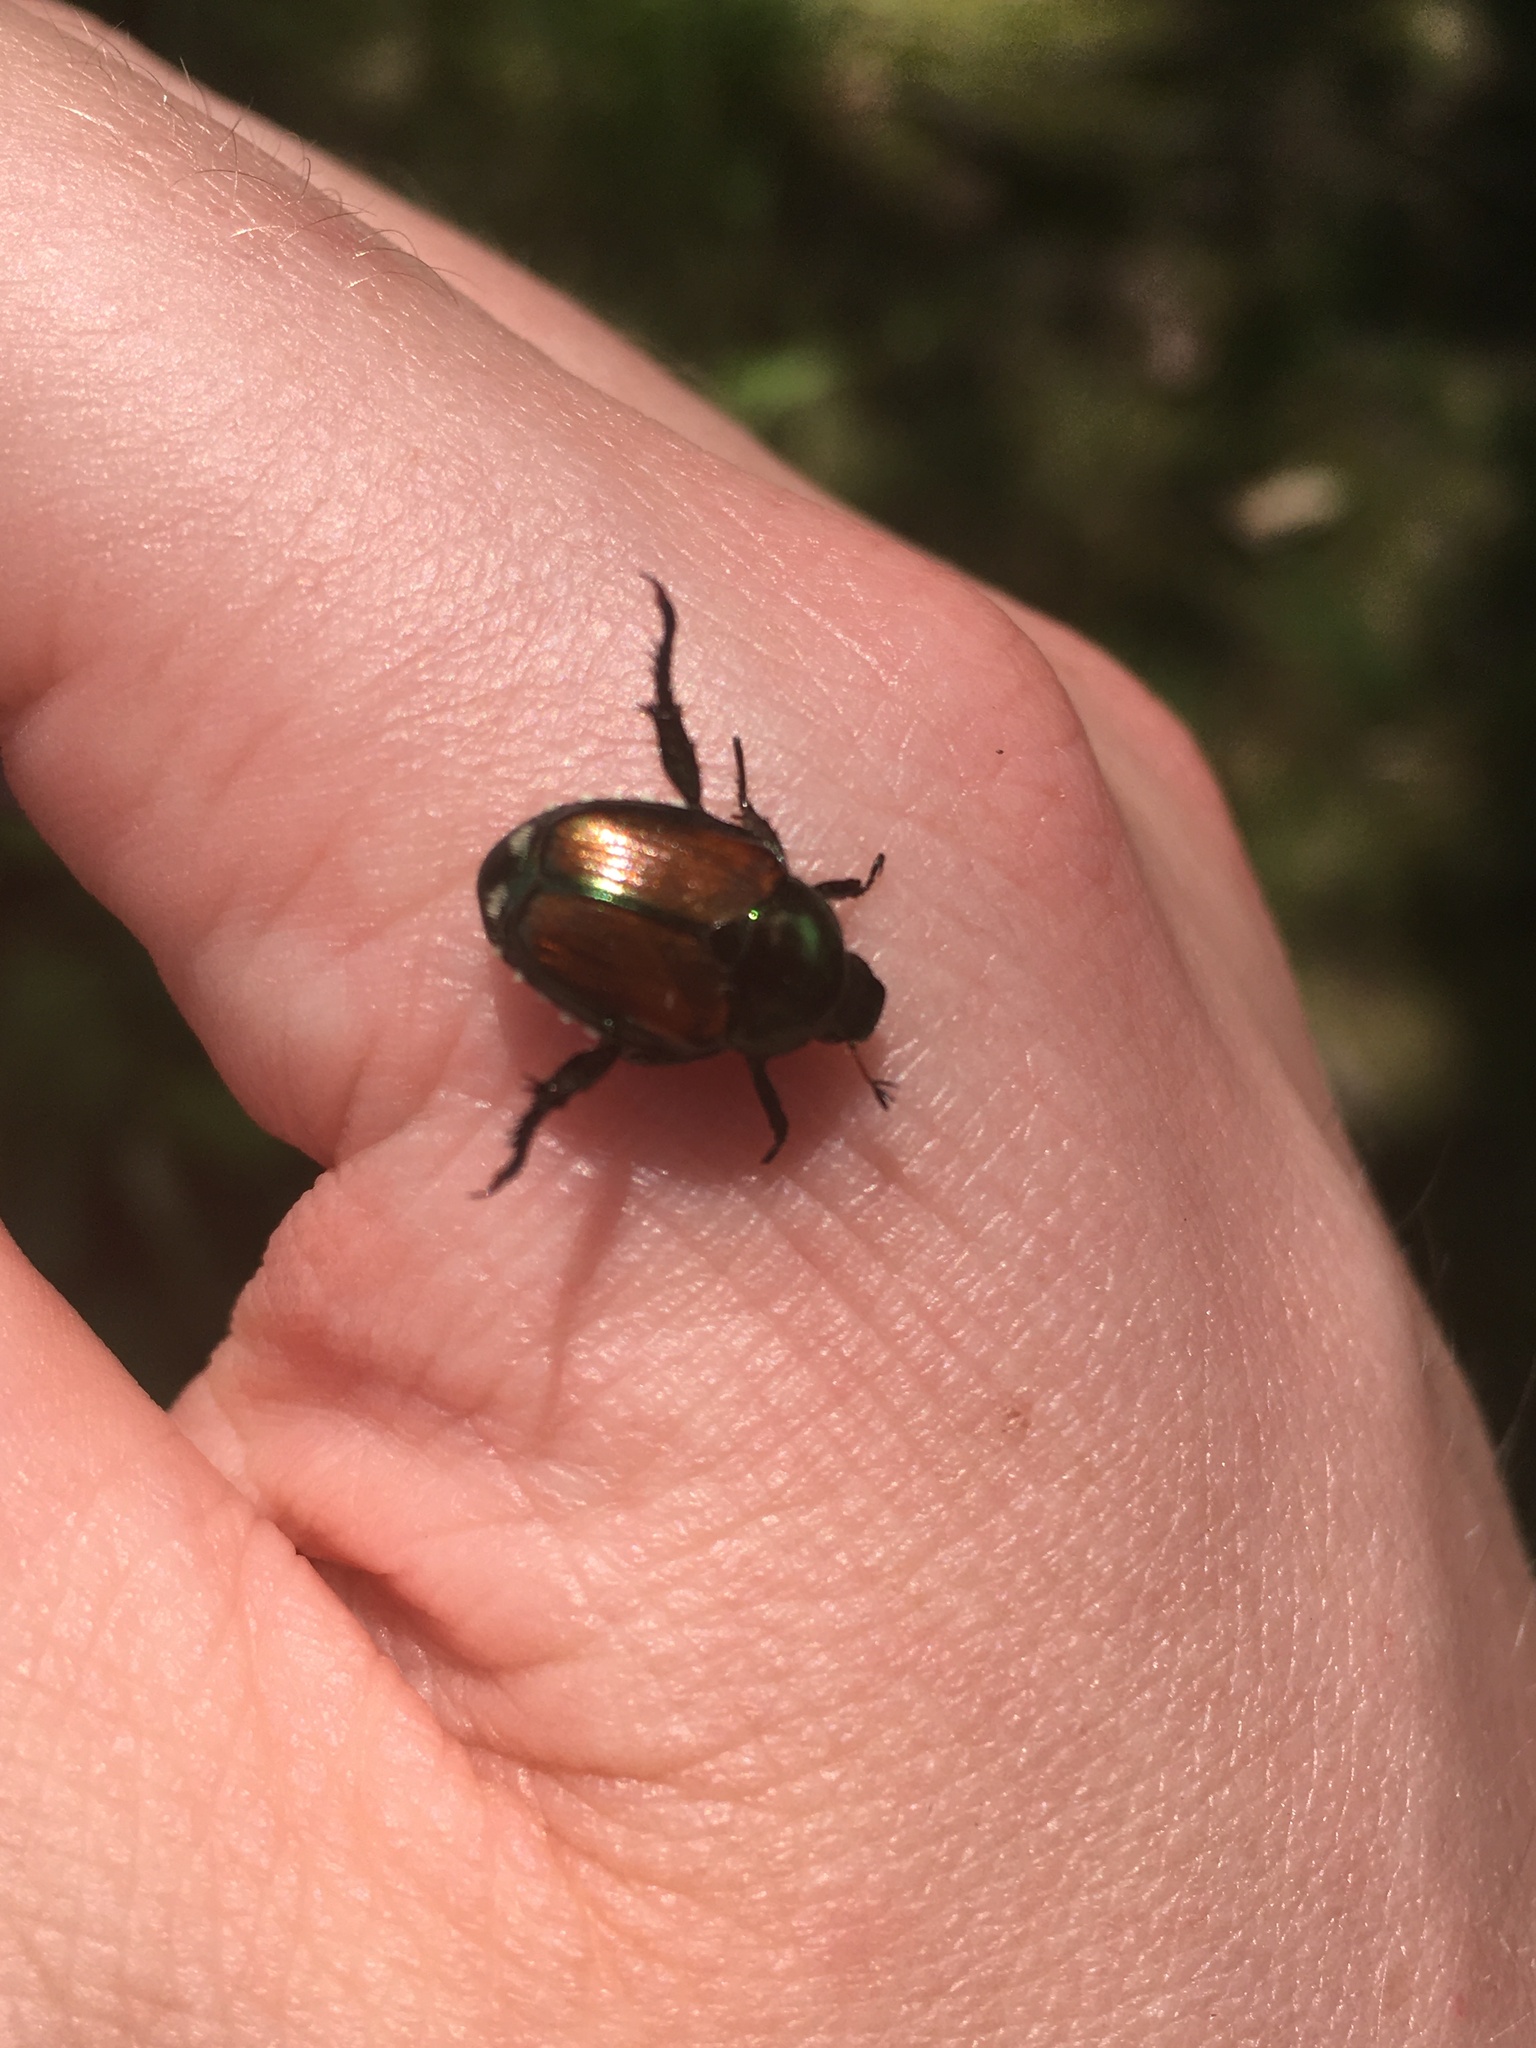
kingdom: Animalia
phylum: Arthropoda
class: Insecta
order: Coleoptera
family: Scarabaeidae
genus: Popillia
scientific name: Popillia japonica
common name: Japanese beetle
